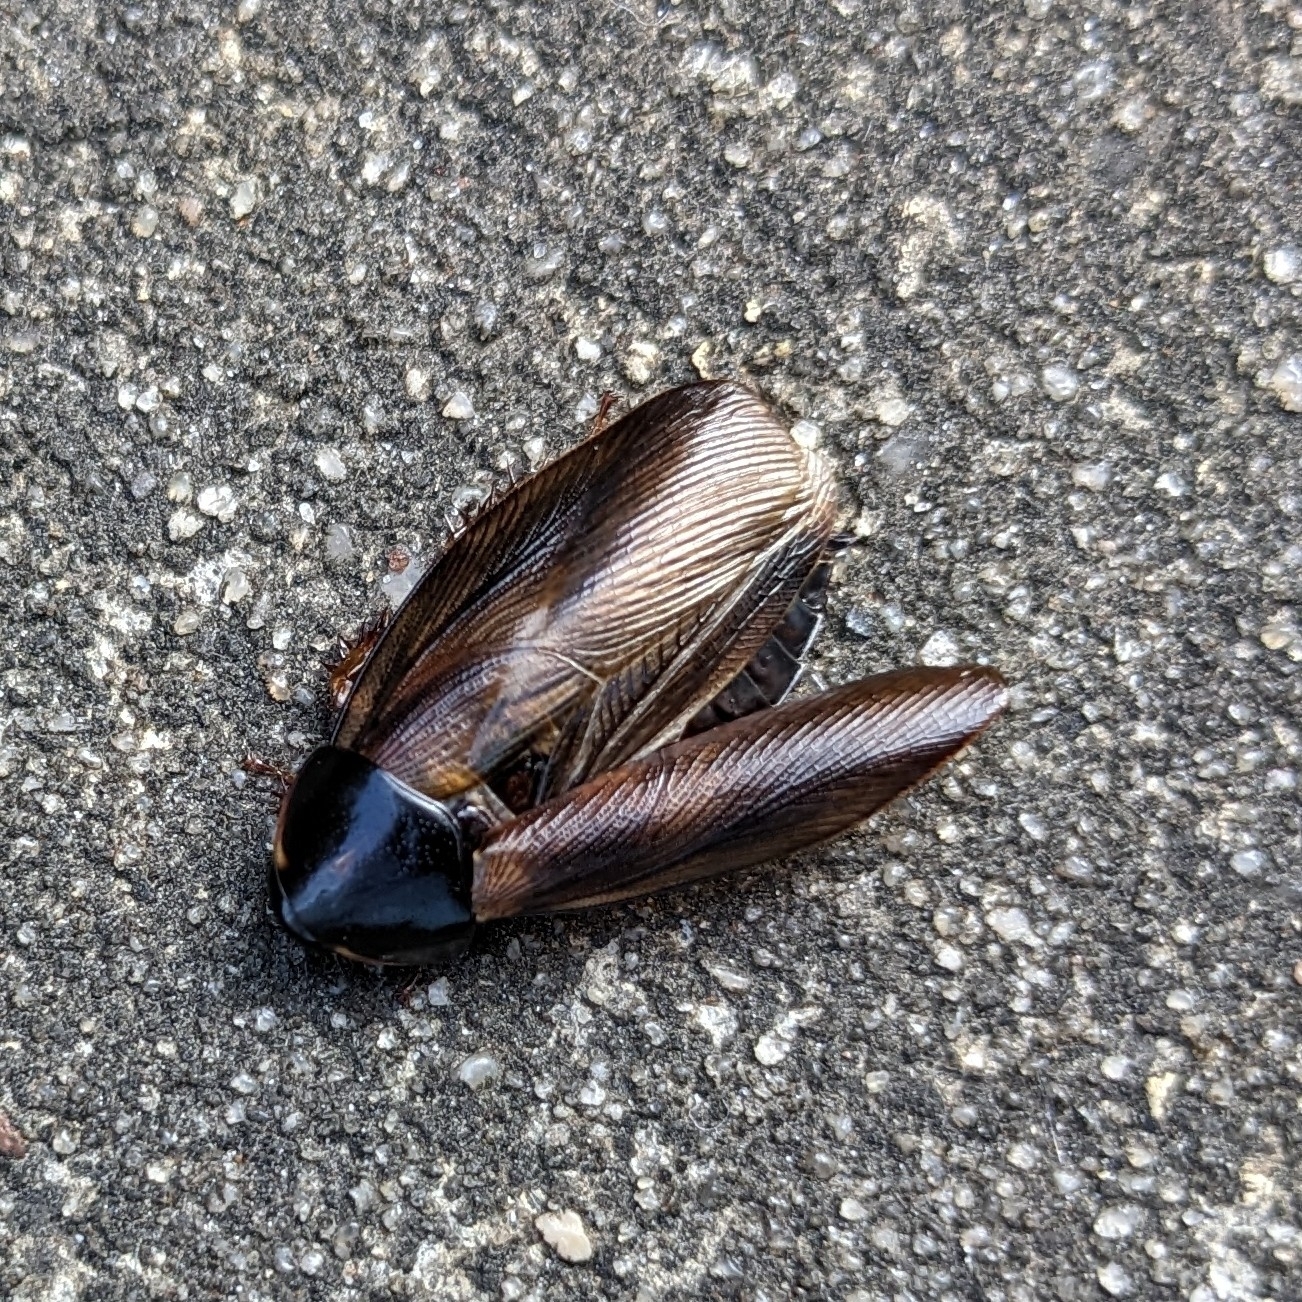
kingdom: Animalia
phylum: Arthropoda
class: Insecta
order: Blattodea
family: Blaberidae
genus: Pycnoscelus
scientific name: Pycnoscelus surinamensis
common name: Surinam cockroach
